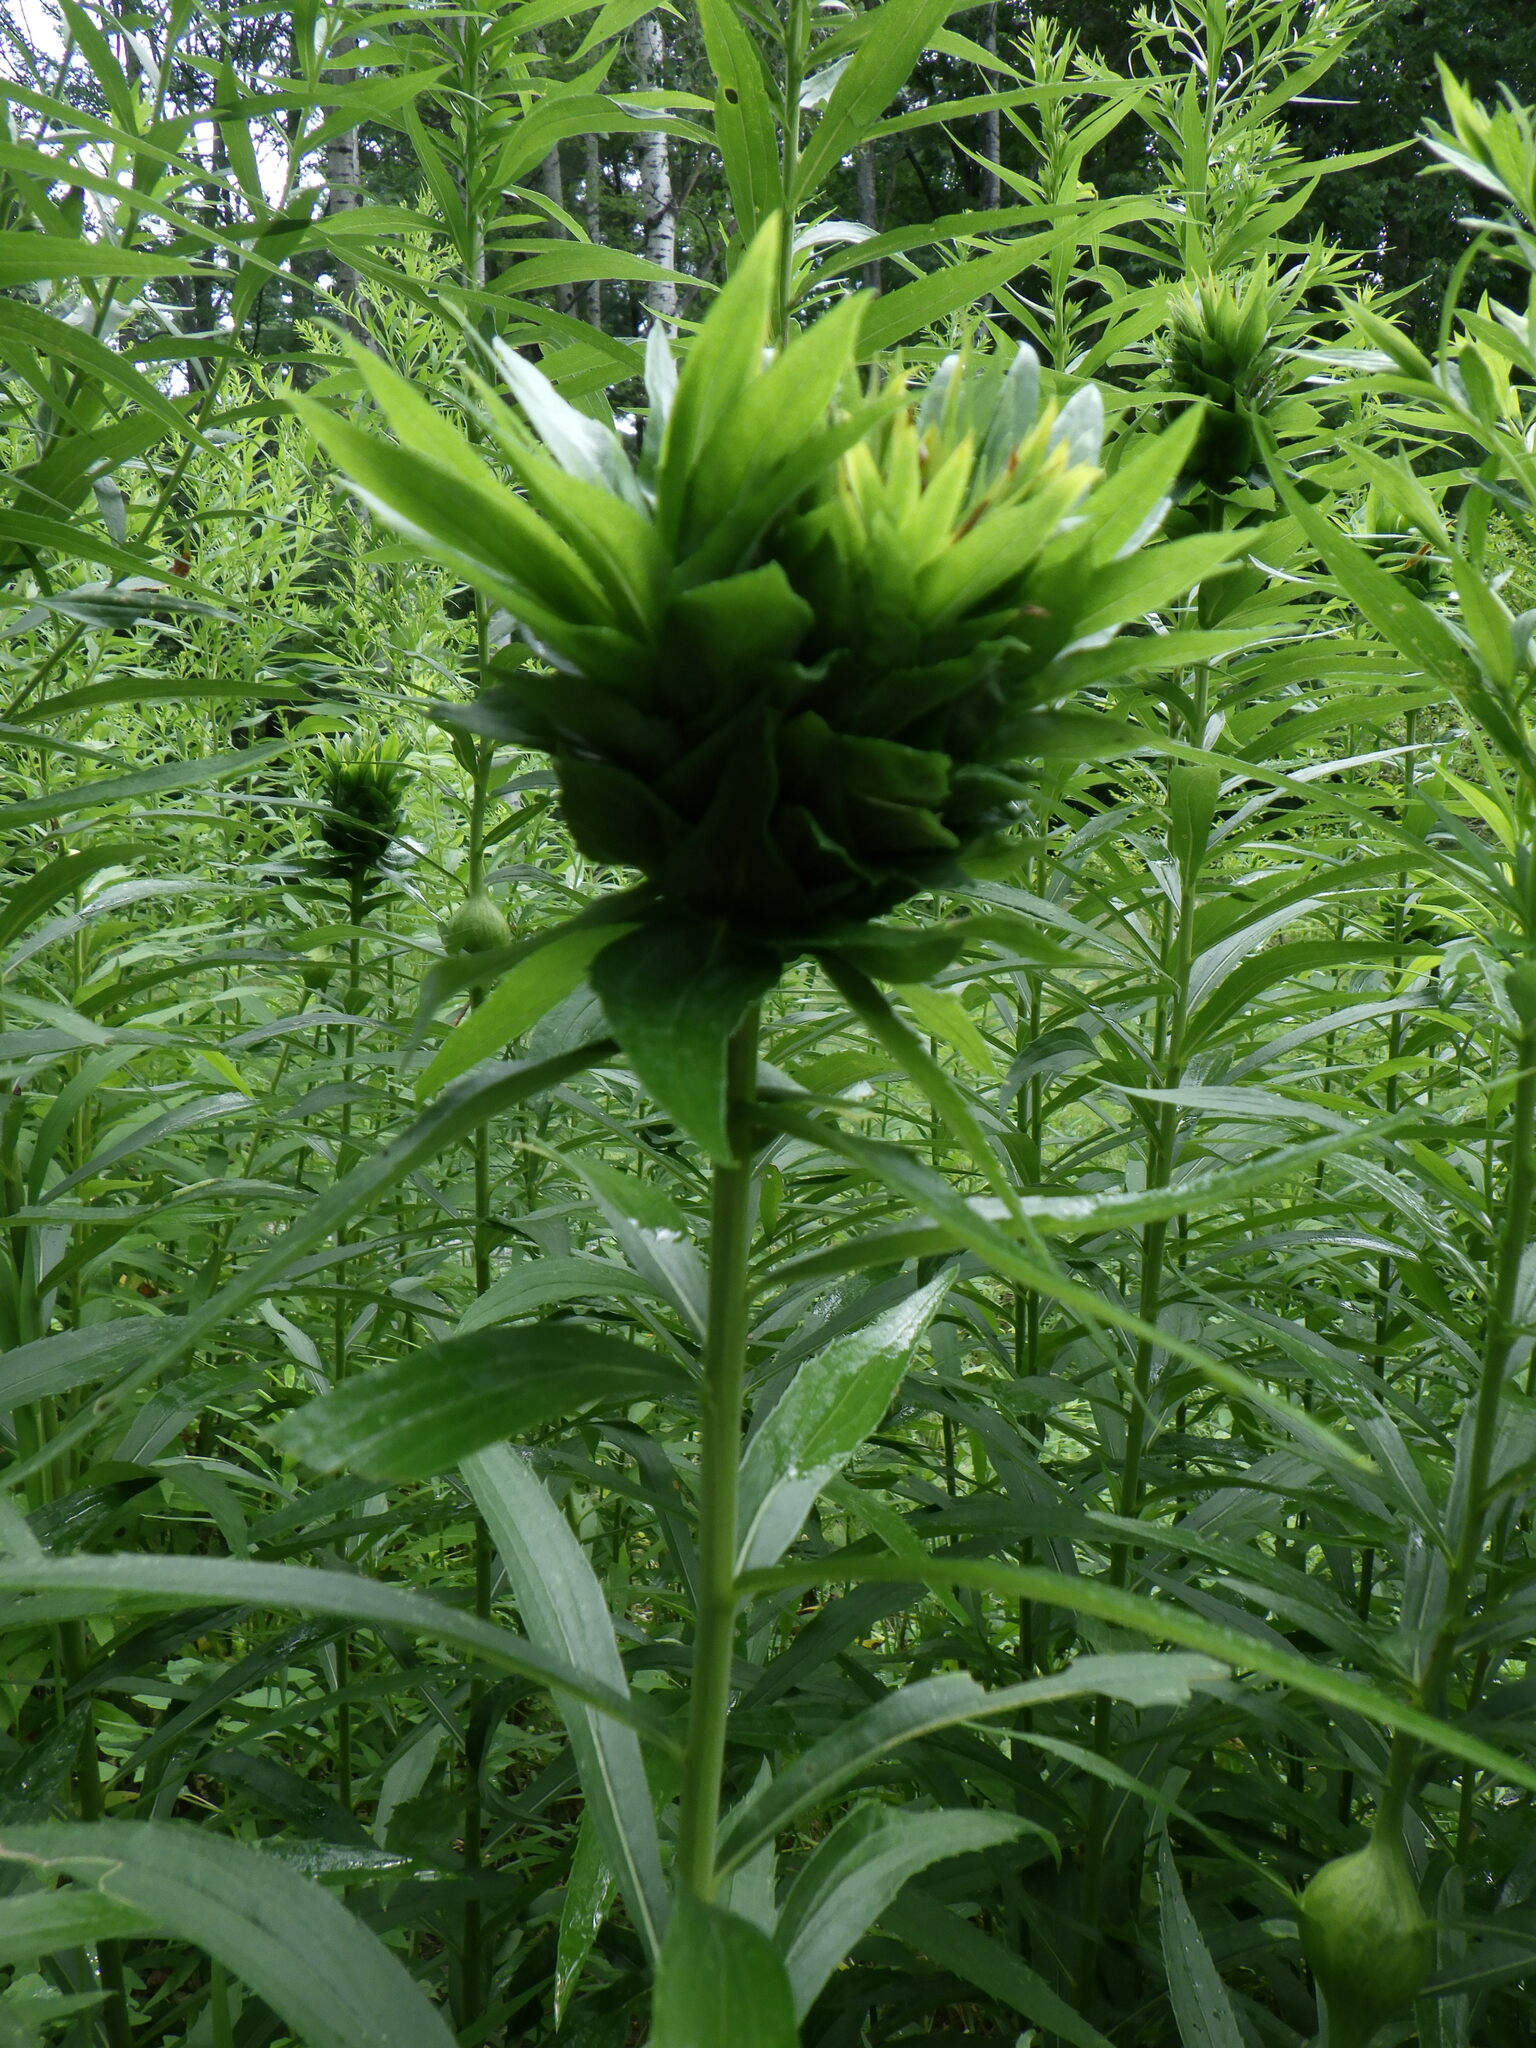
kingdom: Animalia
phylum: Arthropoda
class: Insecta
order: Diptera
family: Cecidomyiidae
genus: Rhopalomyia
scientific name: Rhopalomyia solidaginis
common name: Goldenrod bunch gall midge
